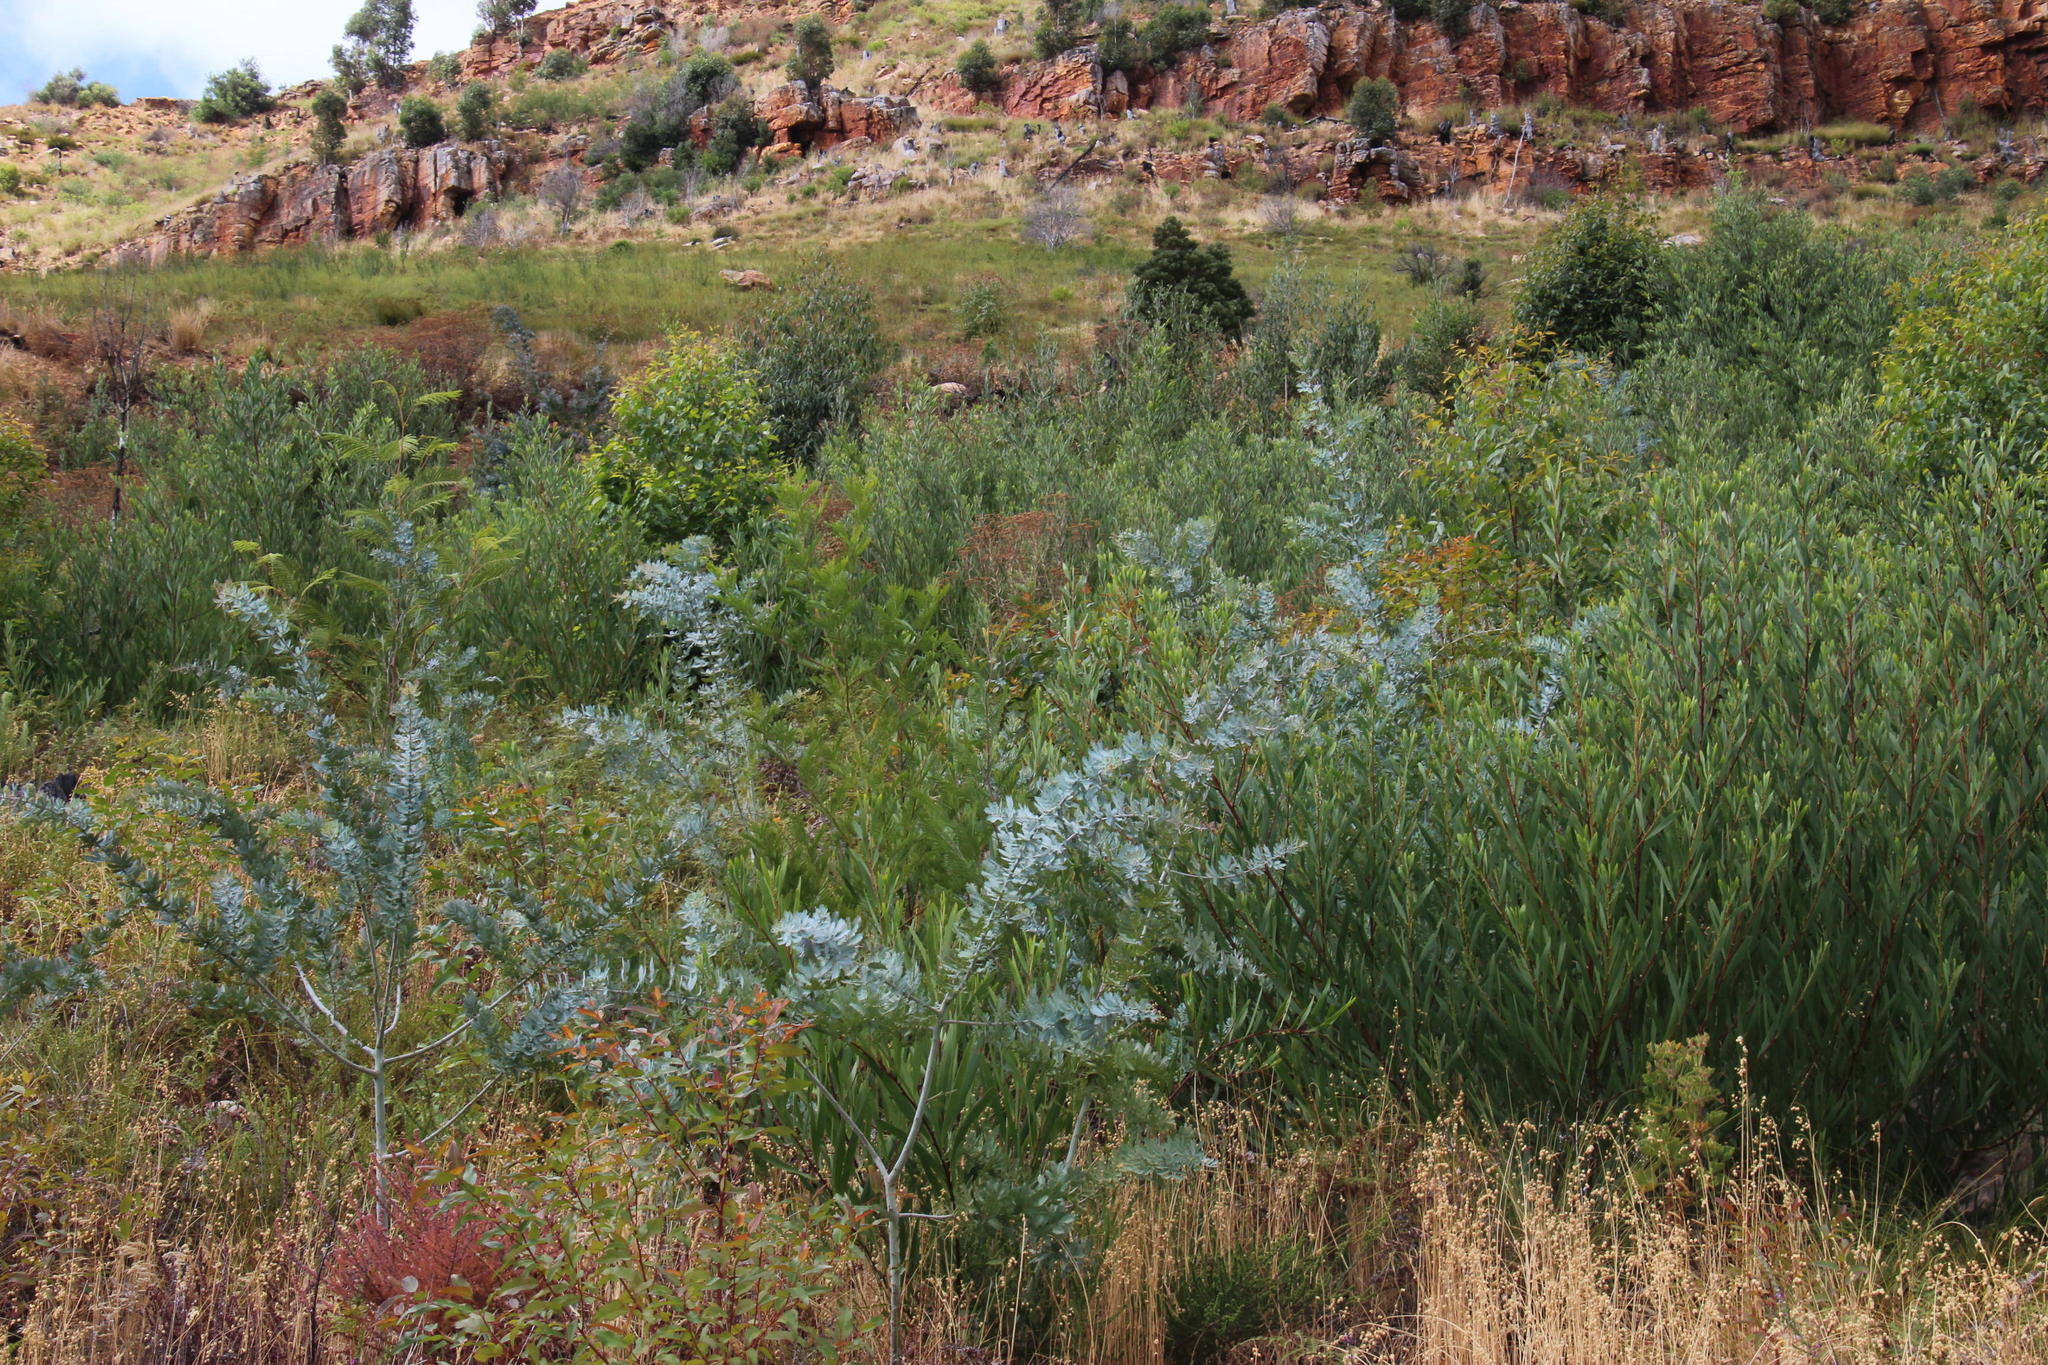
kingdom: Plantae
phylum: Tracheophyta
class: Magnoliopsida
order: Fabales
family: Fabaceae
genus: Acacia
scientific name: Acacia baileyana
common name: Cootamundra wattle
